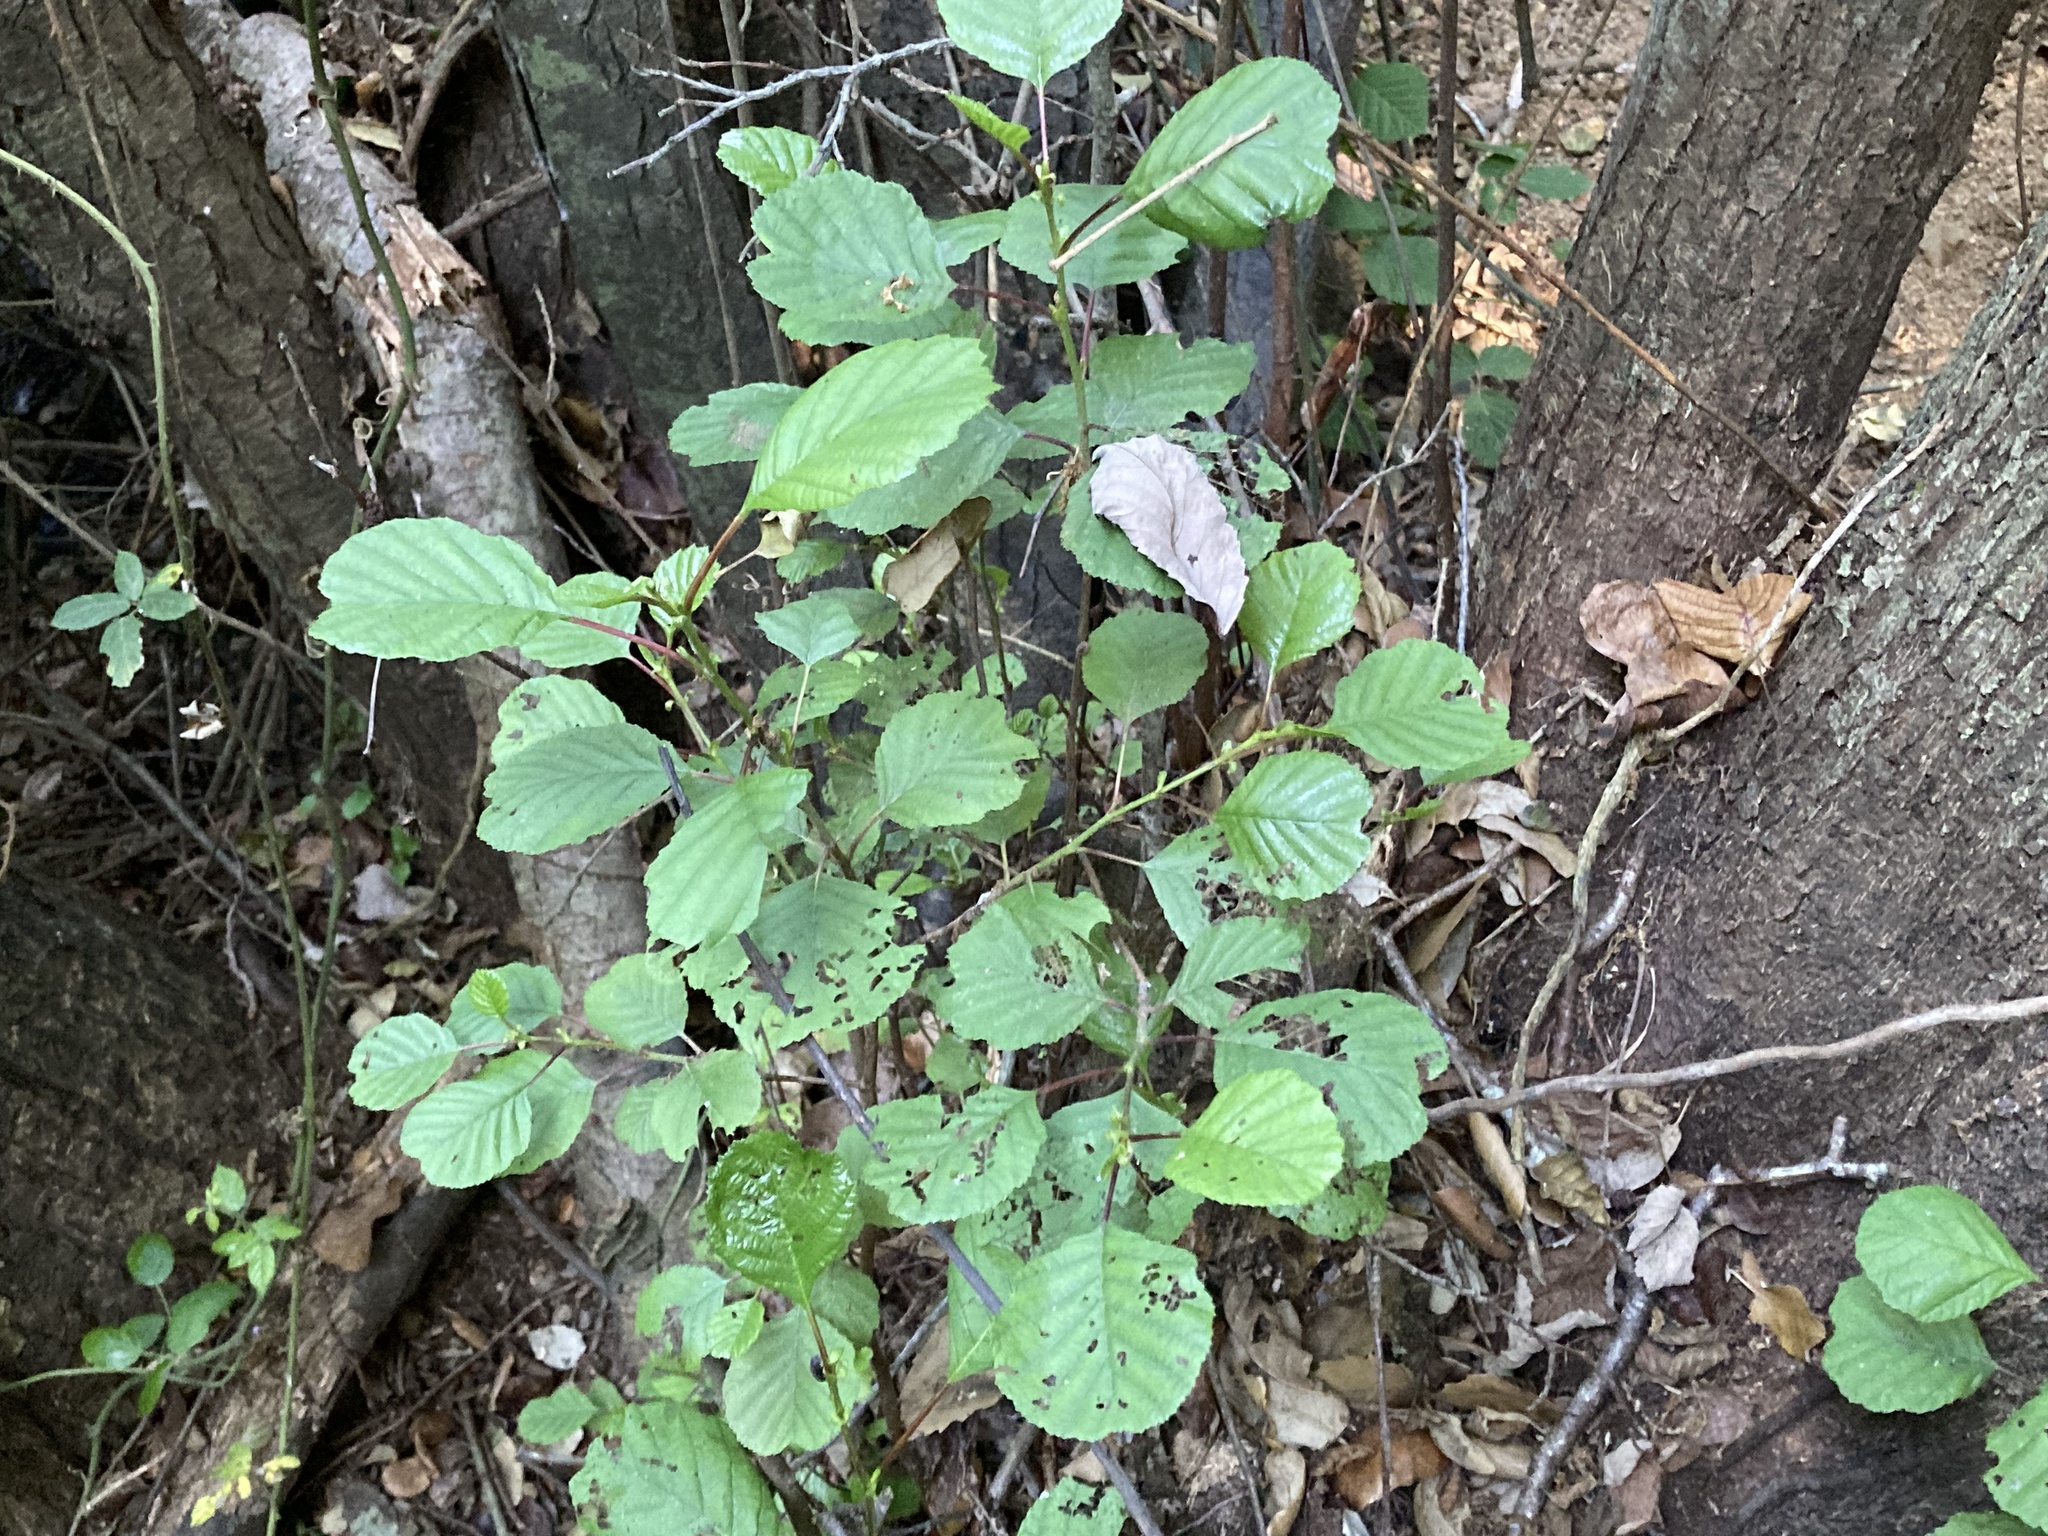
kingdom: Plantae
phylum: Tracheophyta
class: Magnoliopsida
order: Fagales
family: Betulaceae
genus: Alnus
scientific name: Alnus glutinosa
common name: Black alder
